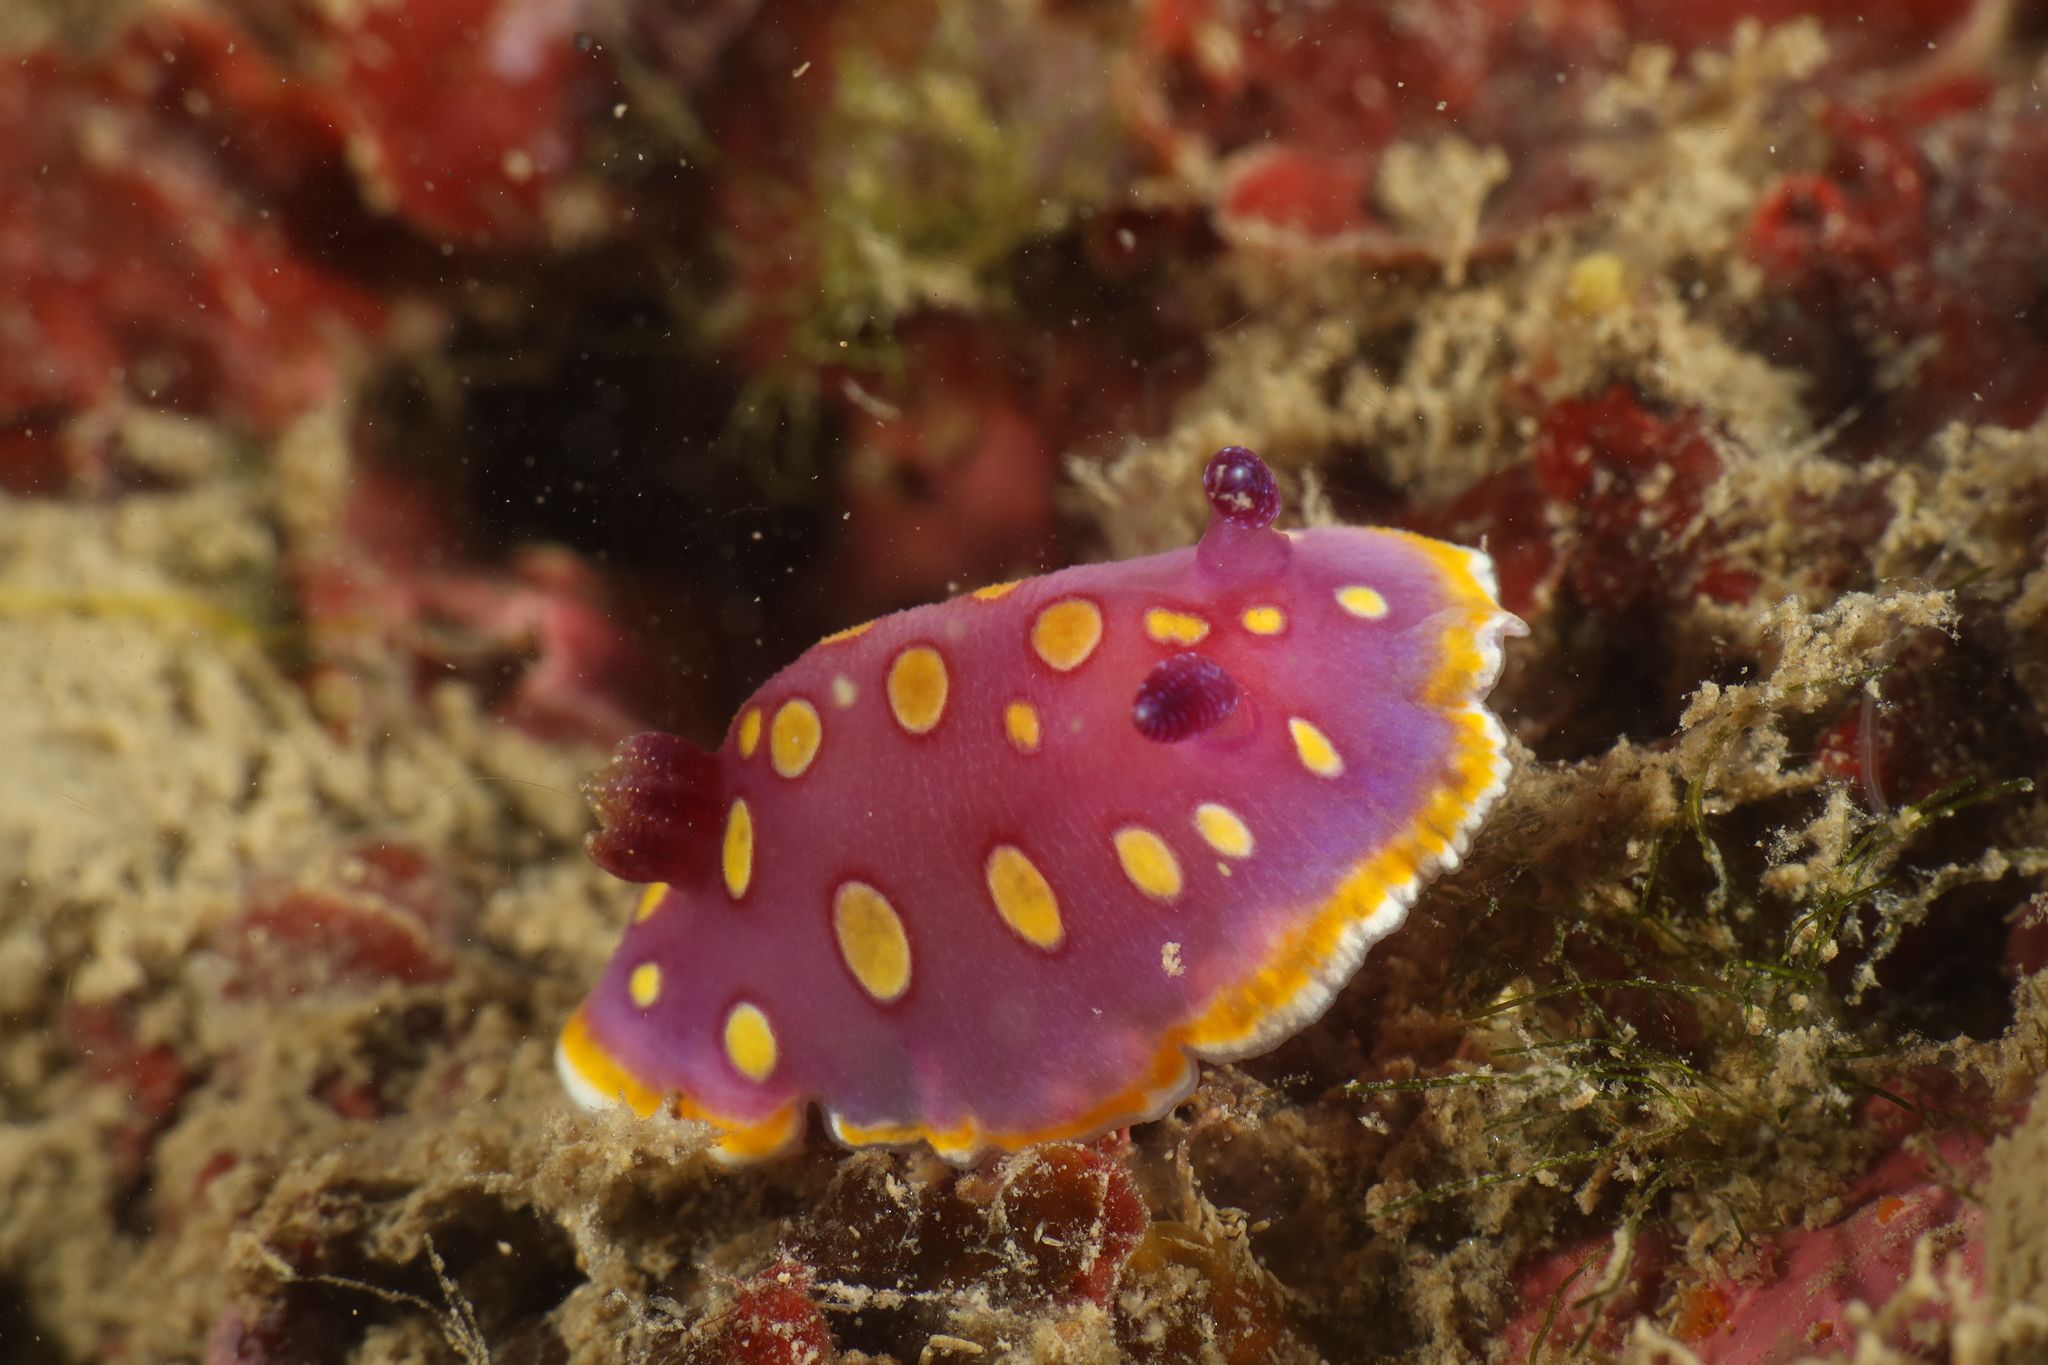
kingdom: Animalia
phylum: Mollusca
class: Gastropoda
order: Nudibranchia
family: Chromodorididae
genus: Felimida
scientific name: Felimida luteorosea
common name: Yellow-dotted doris
